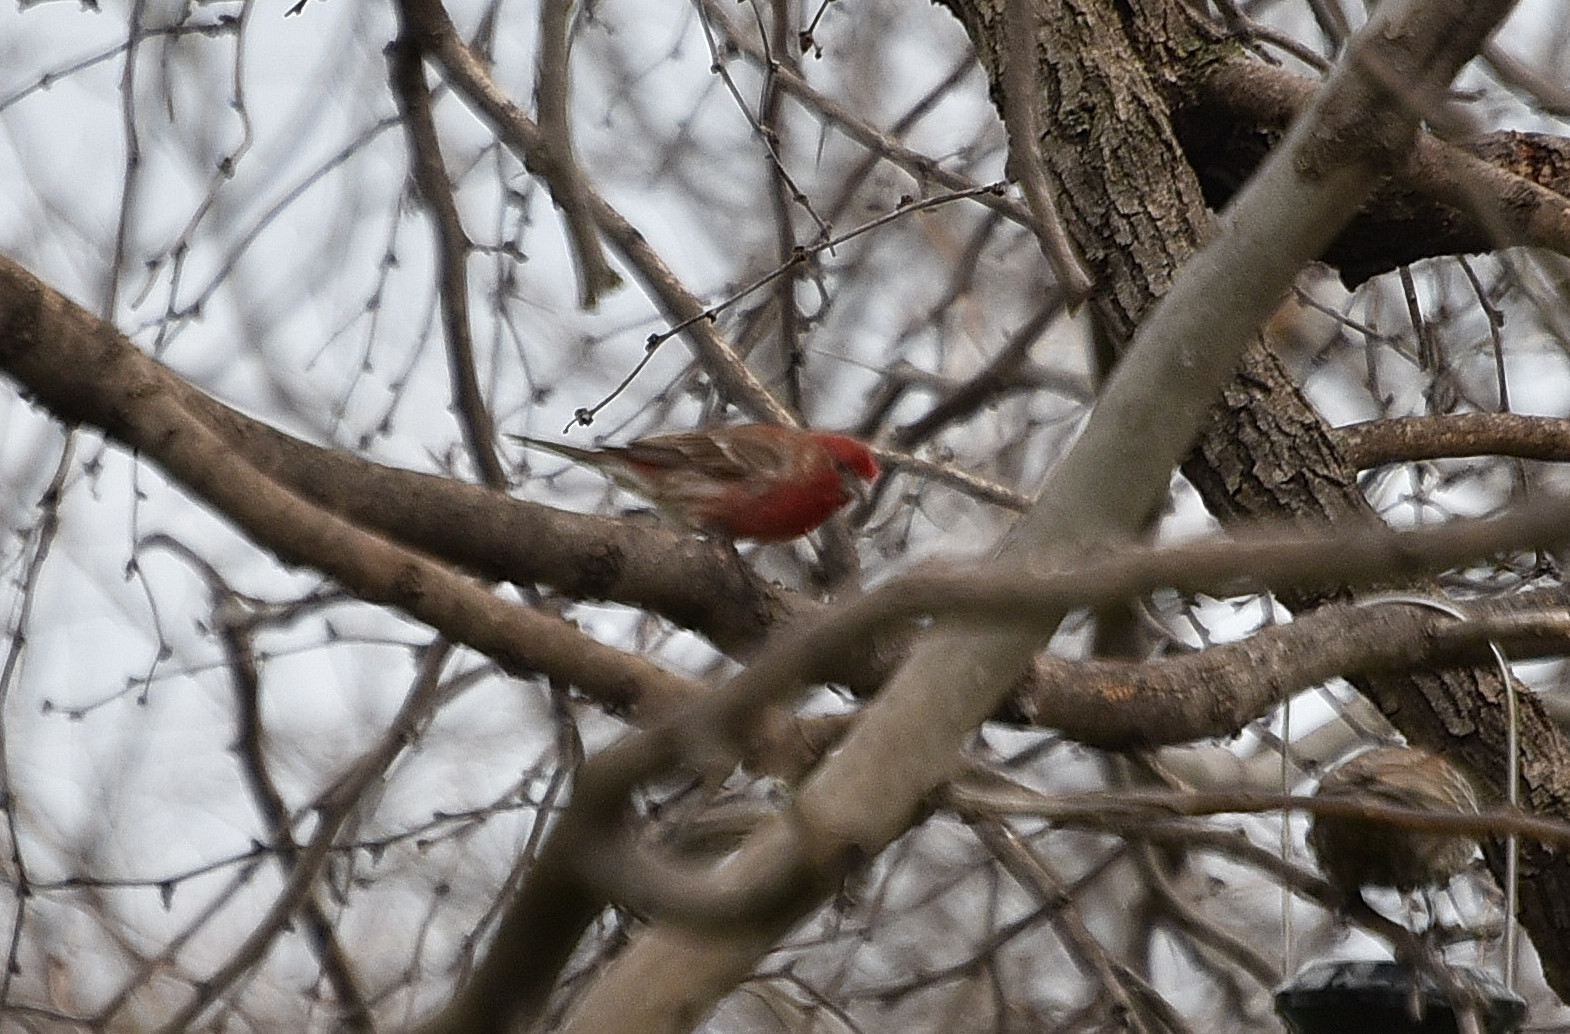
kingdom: Animalia
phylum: Chordata
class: Aves
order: Passeriformes
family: Fringillidae
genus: Haemorhous
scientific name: Haemorhous mexicanus
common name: House finch
